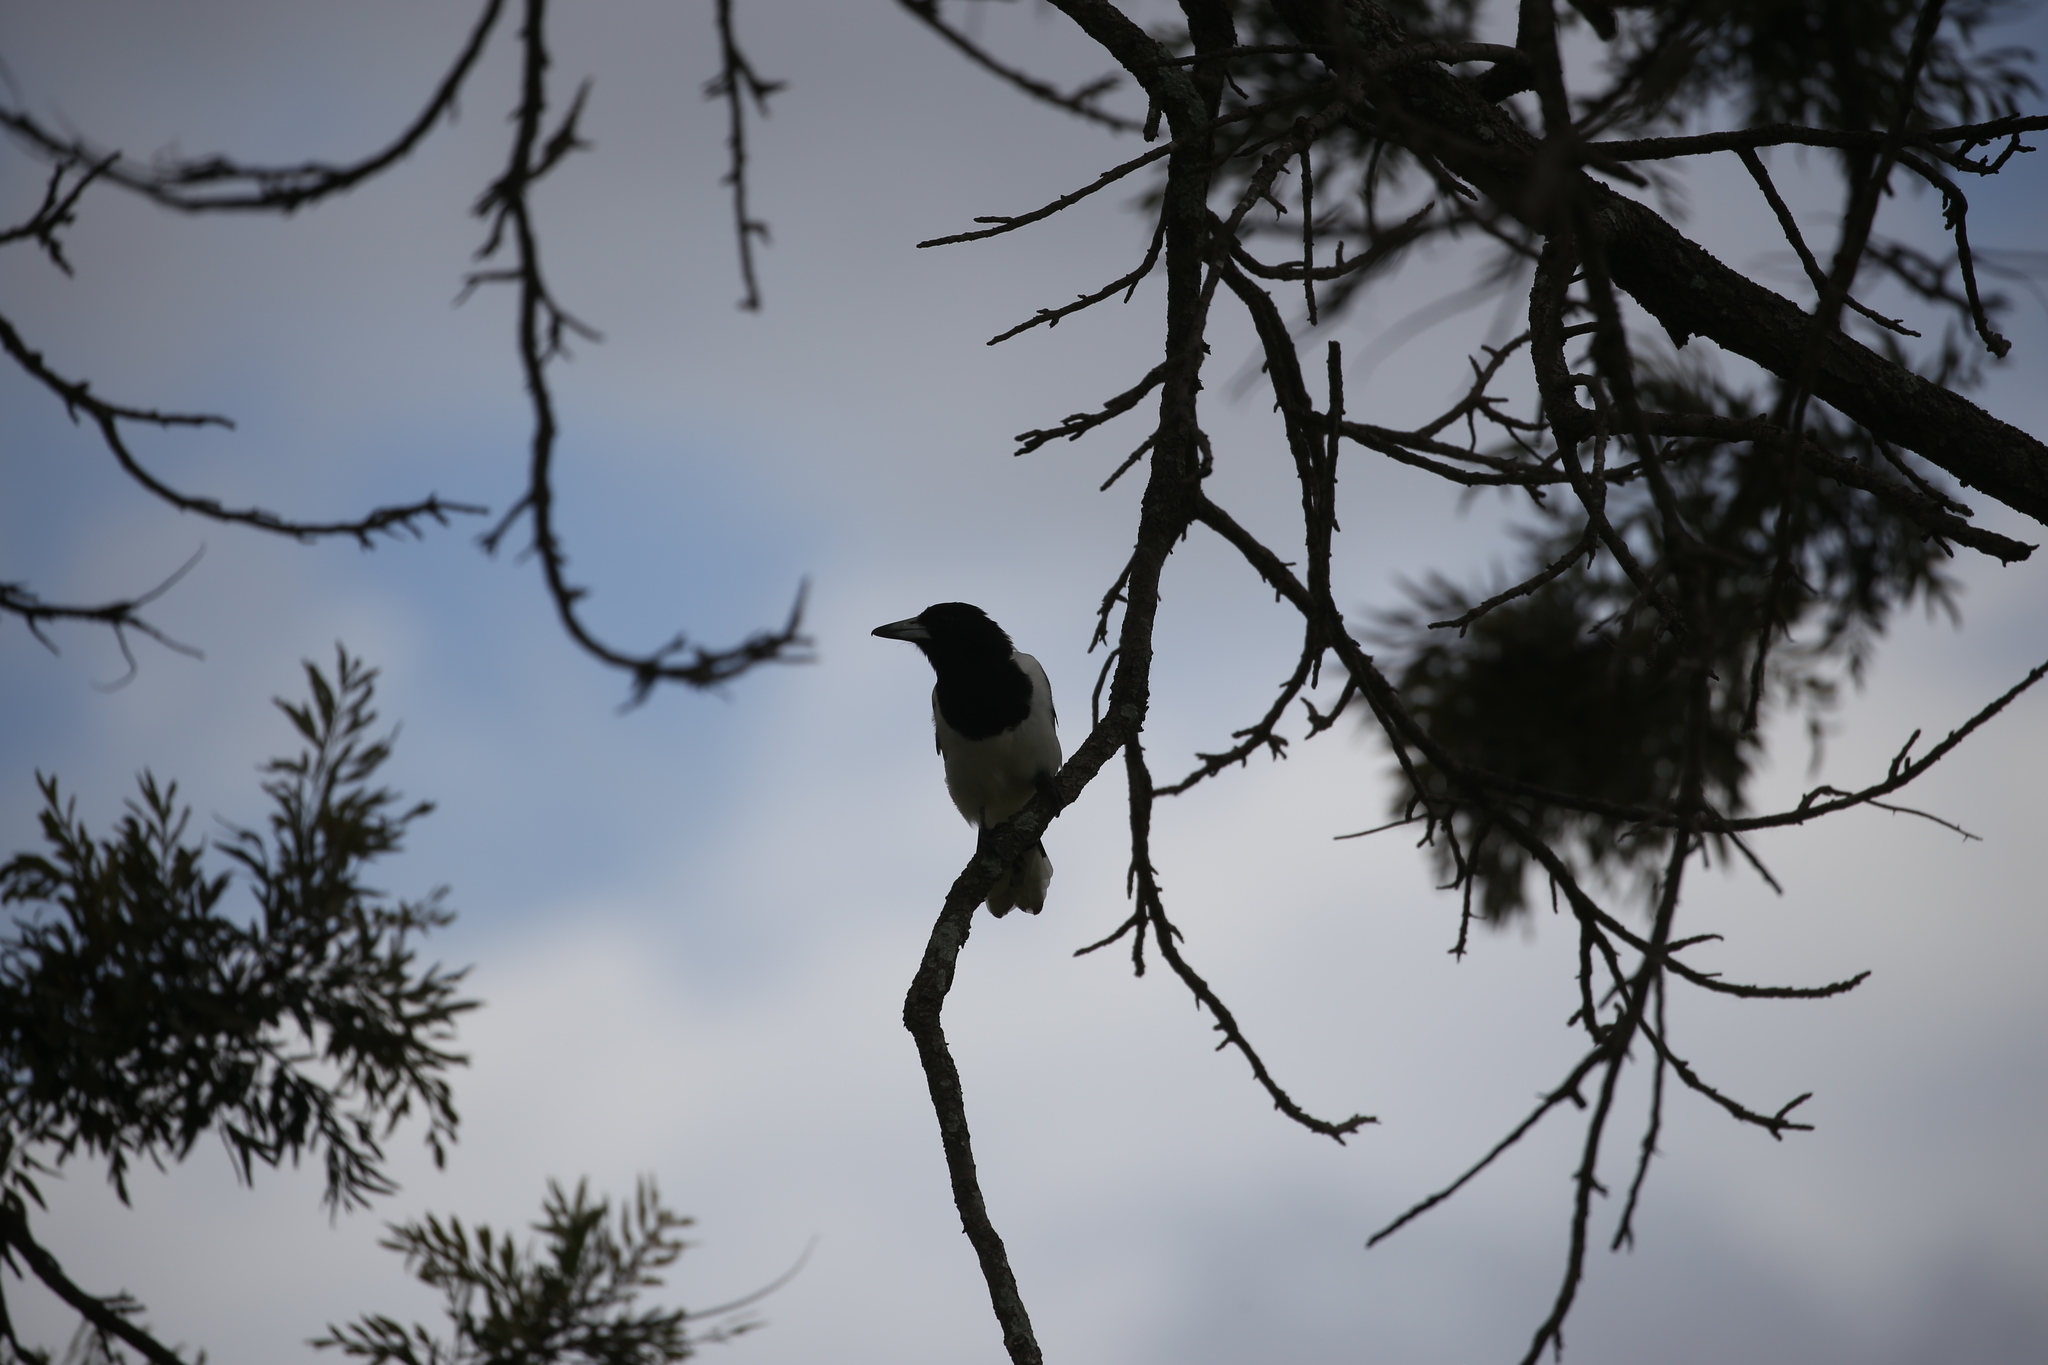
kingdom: Animalia
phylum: Chordata
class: Aves
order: Passeriformes
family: Cracticidae
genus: Cracticus
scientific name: Cracticus nigrogularis
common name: Pied butcherbird
